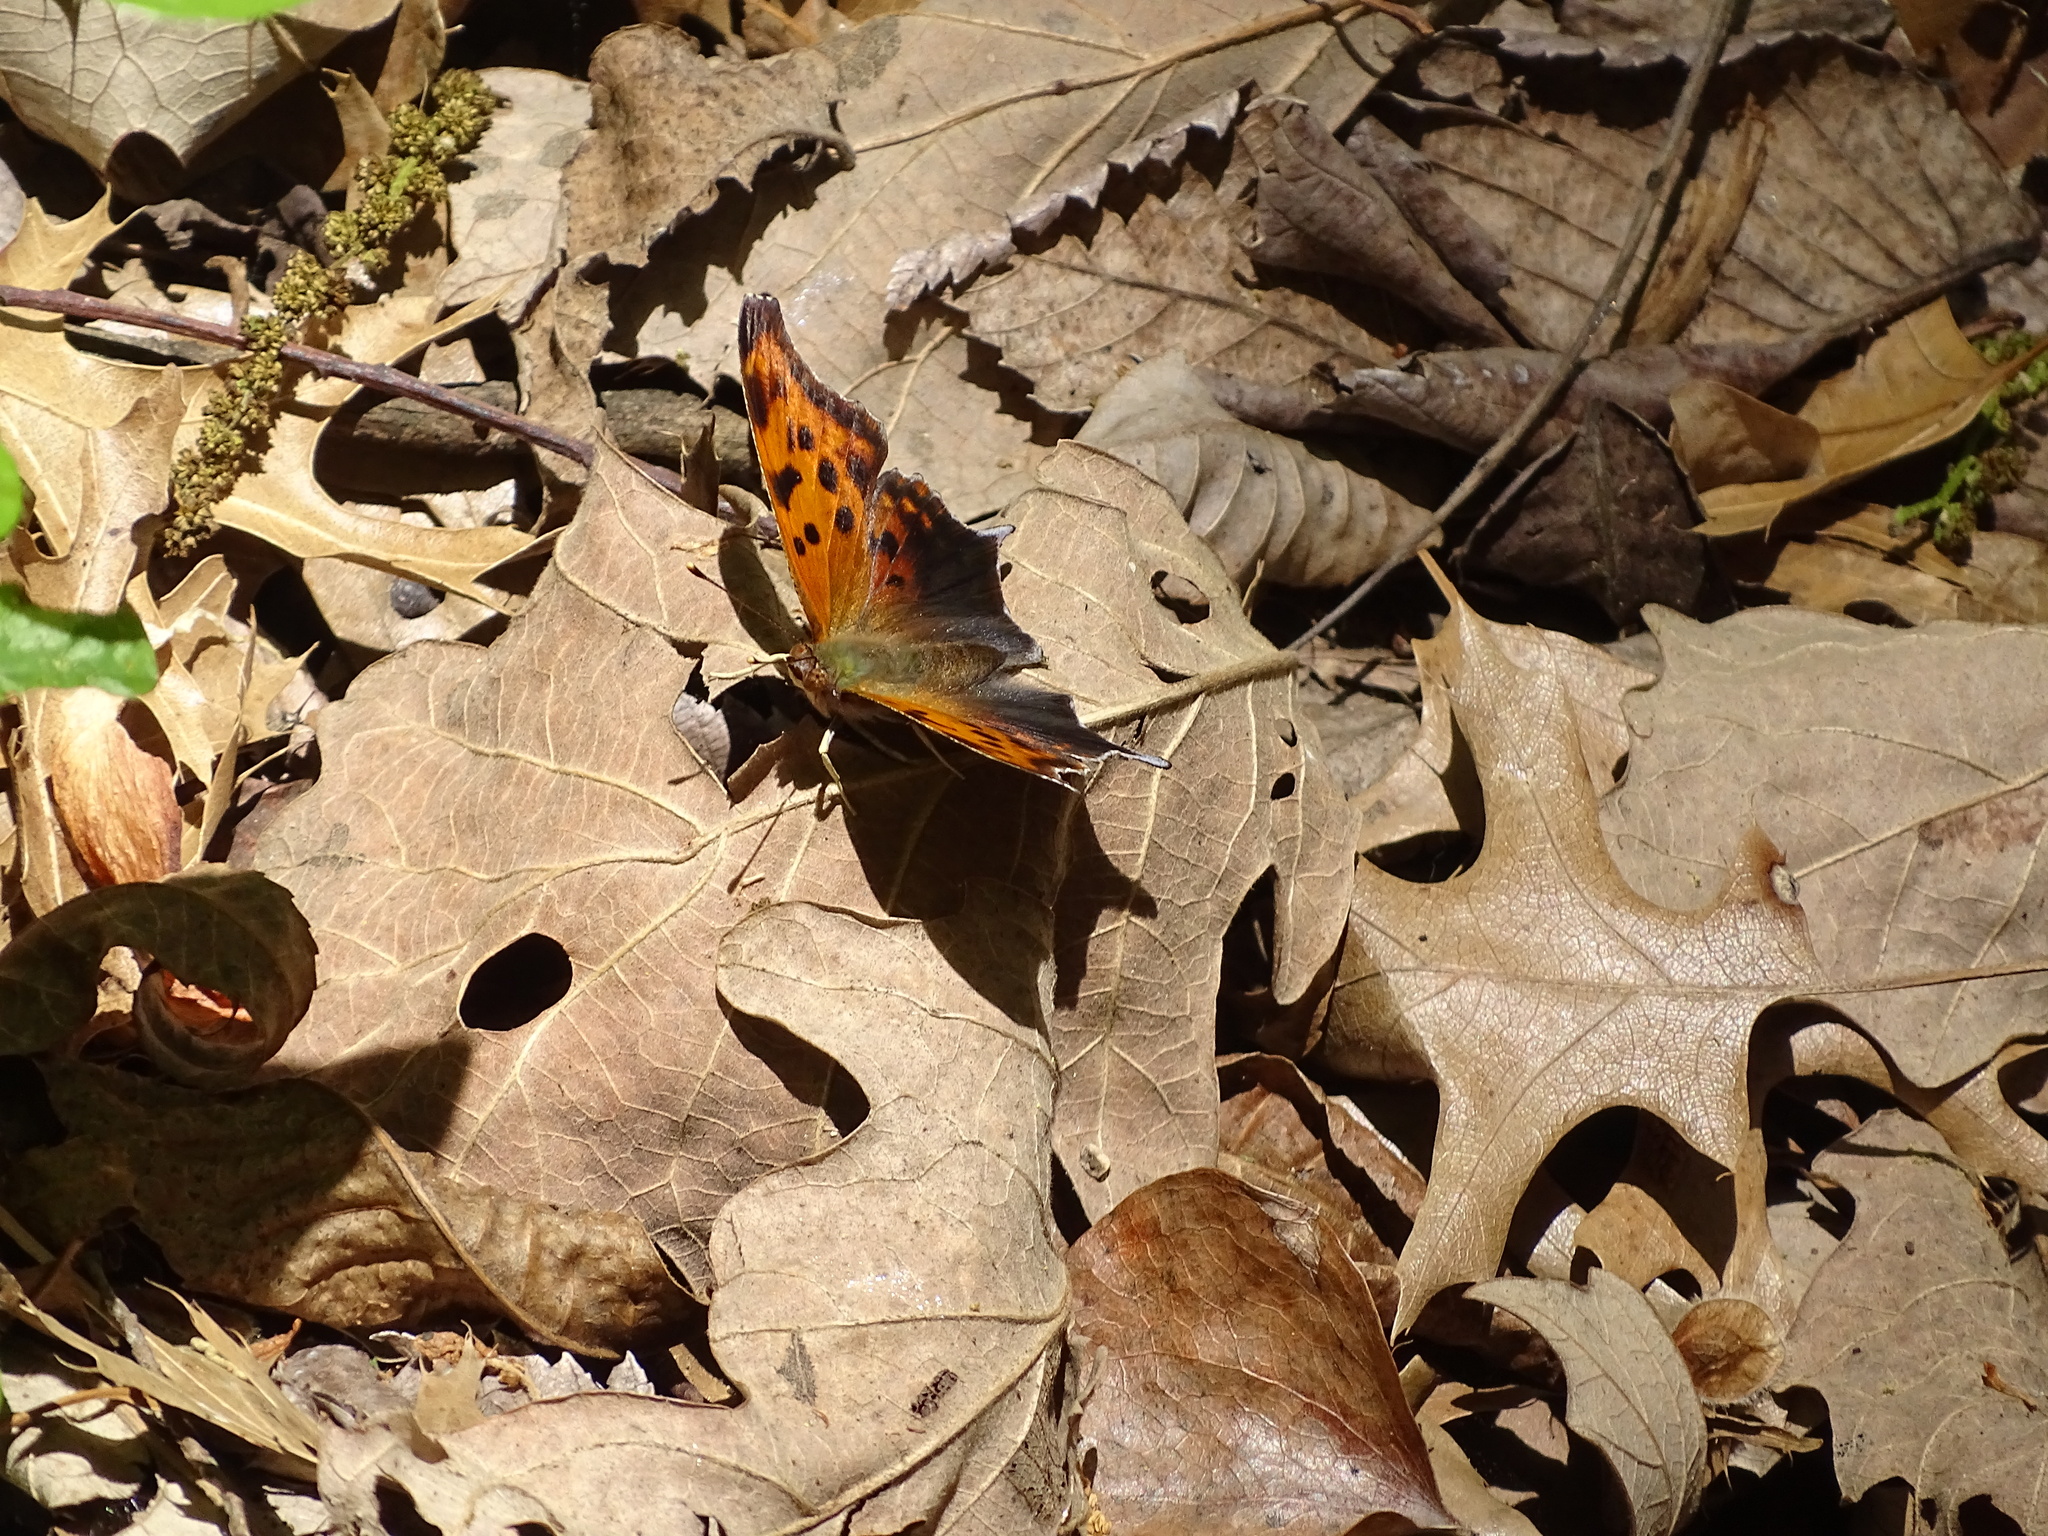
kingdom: Animalia
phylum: Arthropoda
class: Insecta
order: Lepidoptera
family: Nymphalidae
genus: Polygonia
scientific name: Polygonia interrogationis
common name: Question mark
